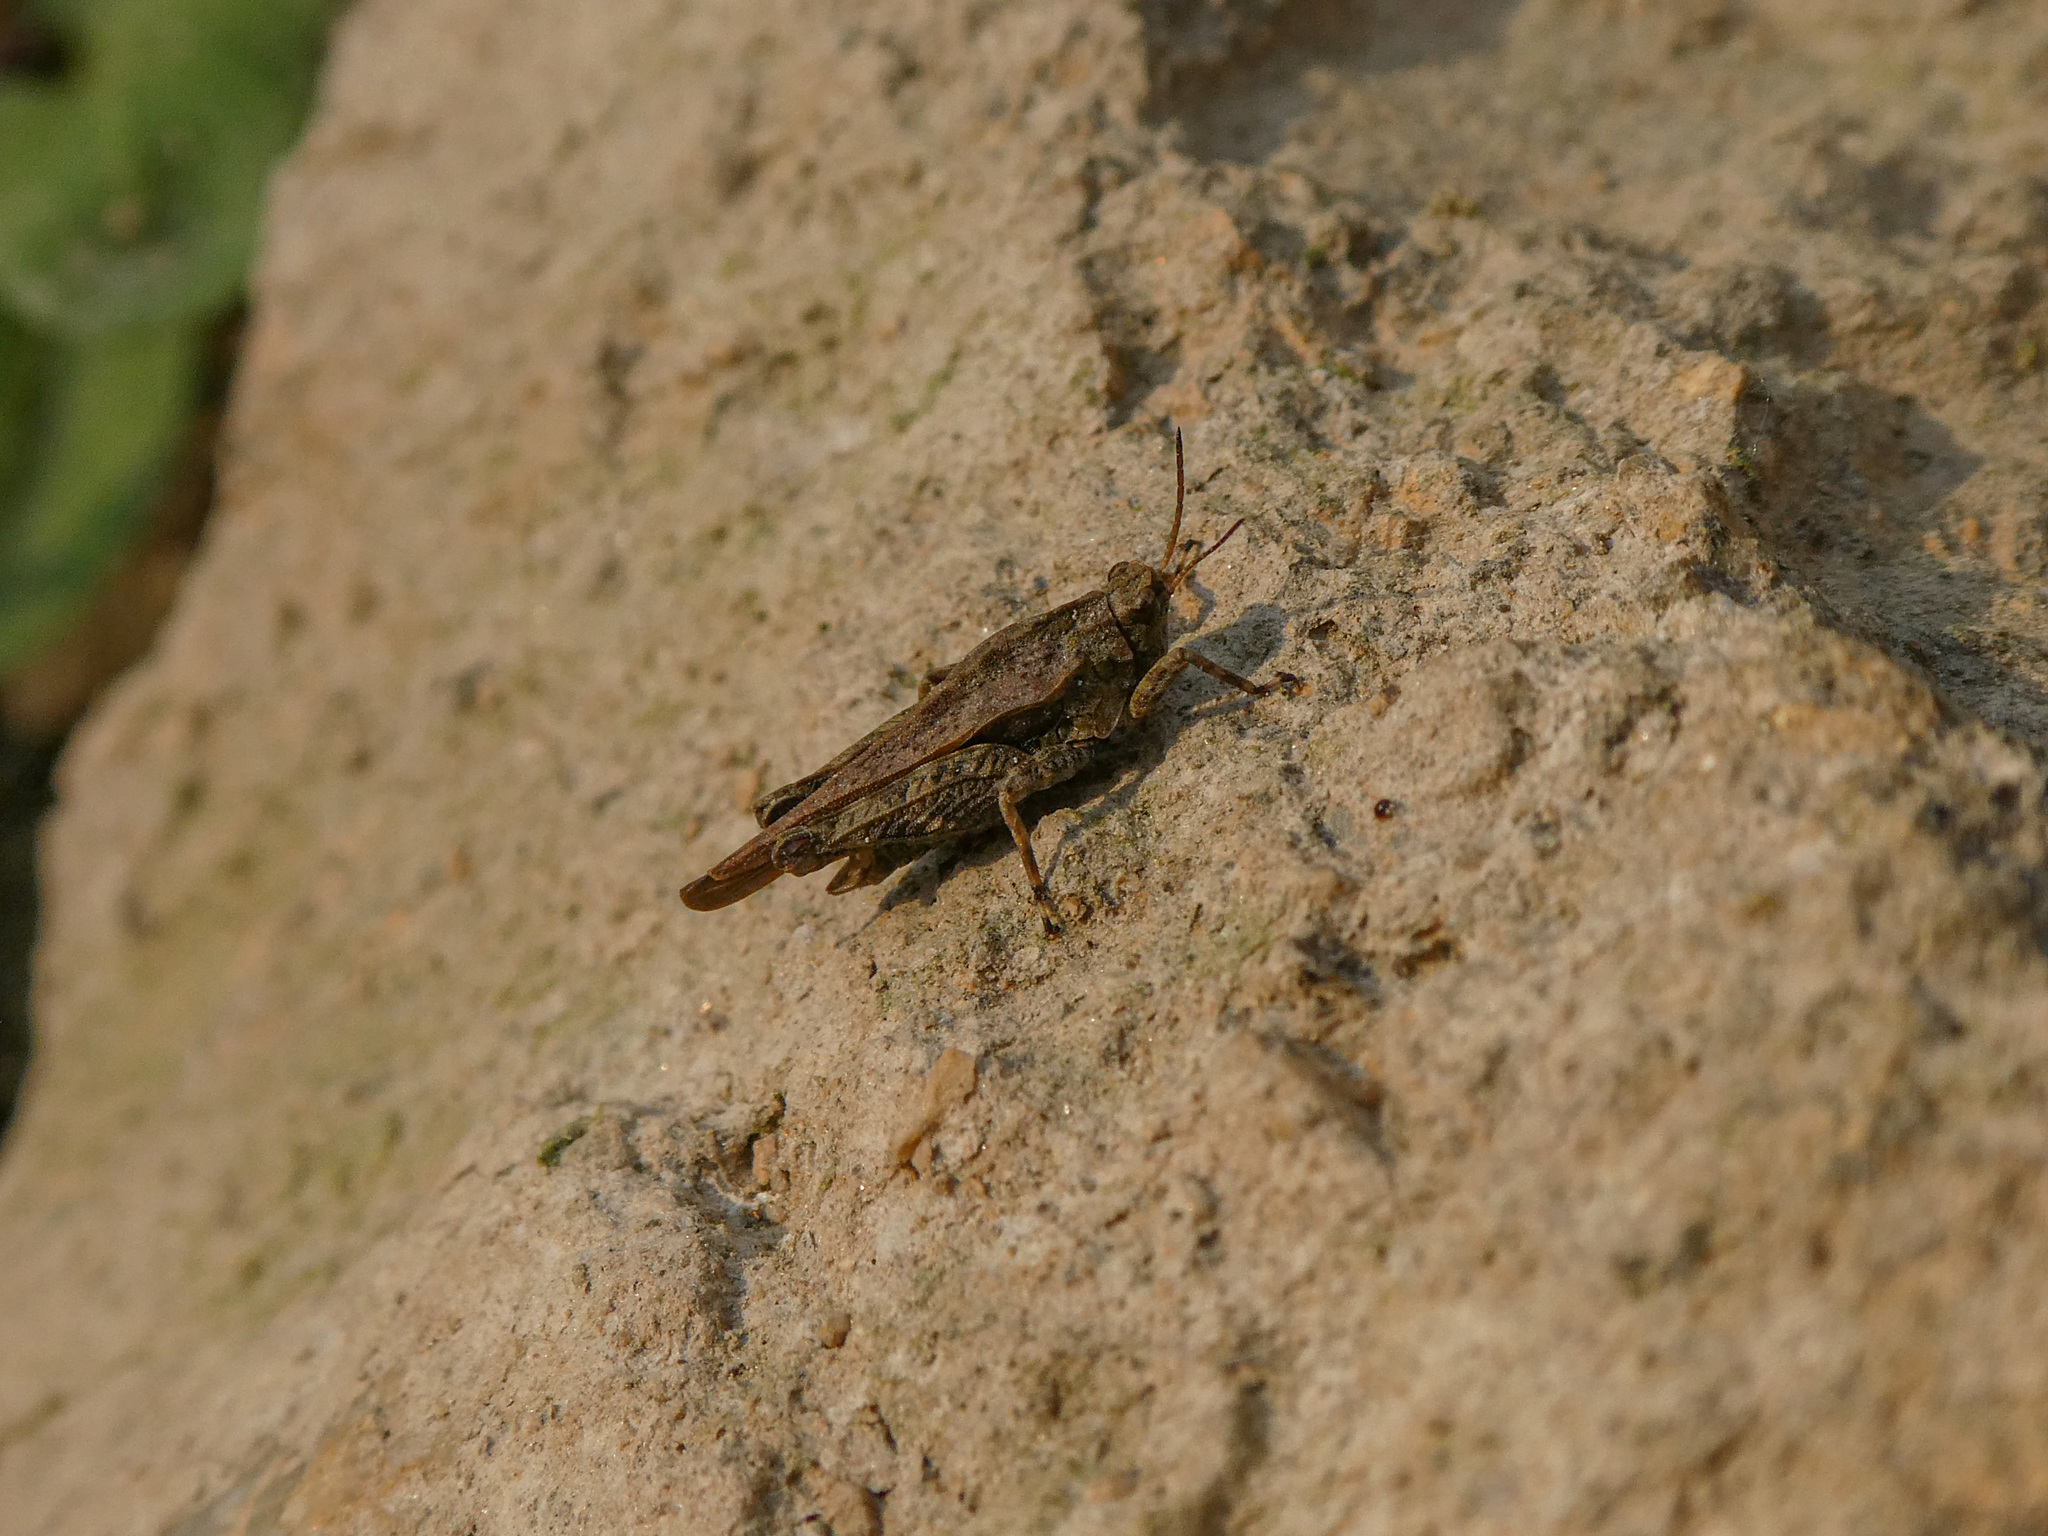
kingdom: Animalia
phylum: Arthropoda
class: Insecta
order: Orthoptera
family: Tetrigidae
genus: Tetrix
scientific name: Tetrix undulata
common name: Common groundhopper
